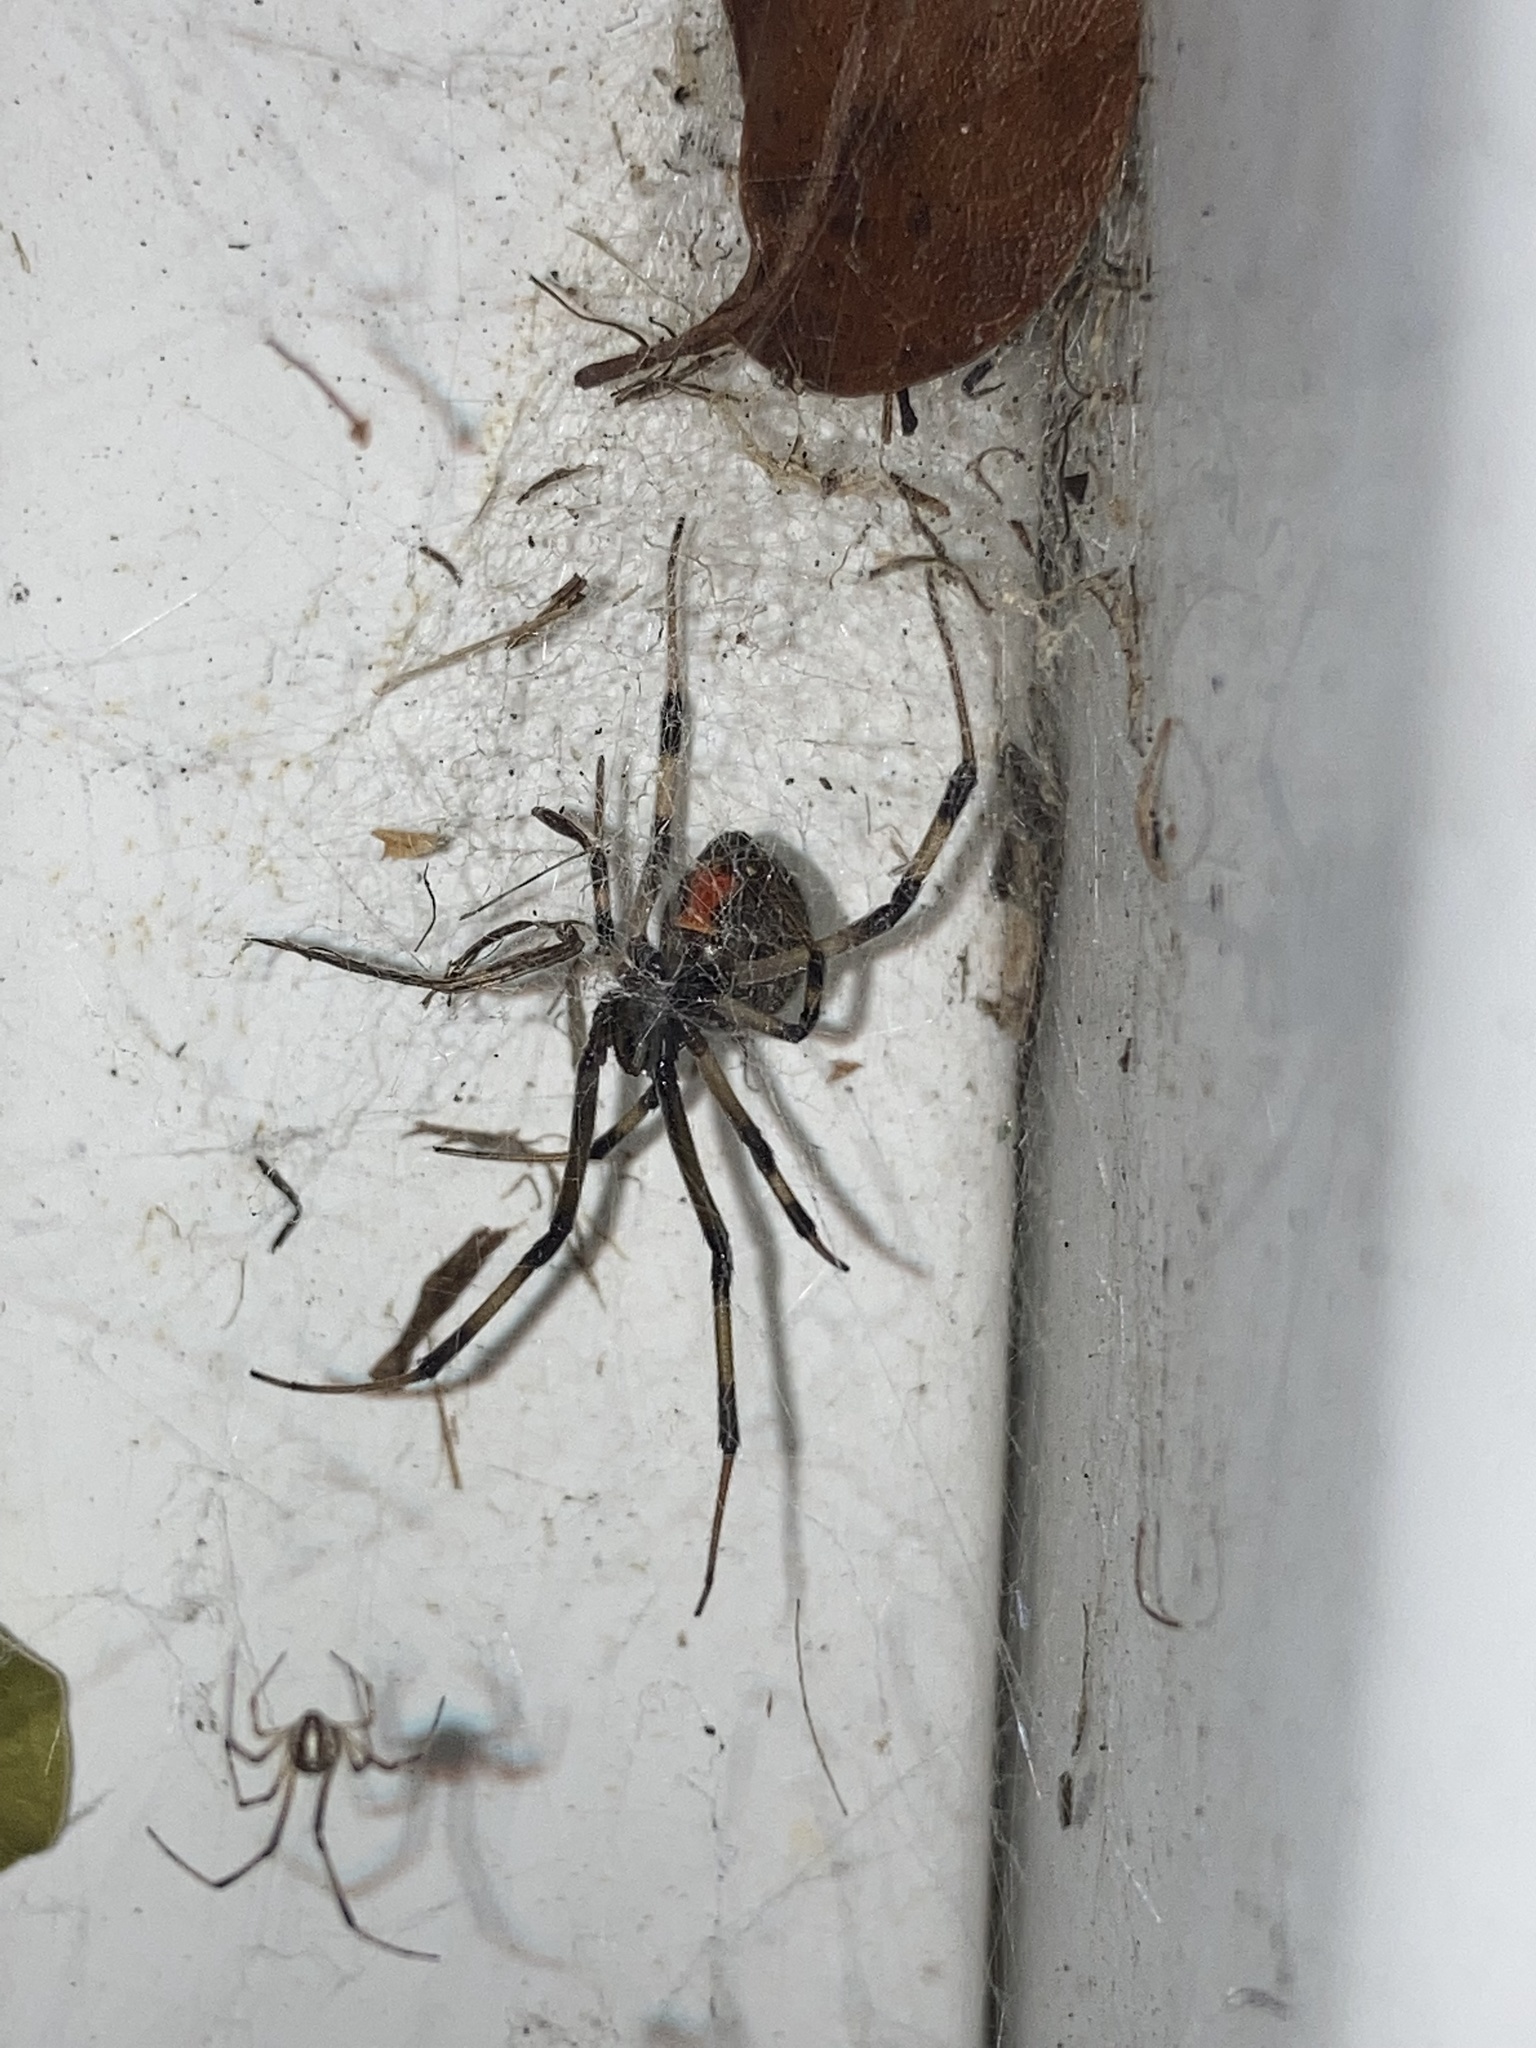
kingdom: Animalia
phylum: Arthropoda
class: Arachnida
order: Araneae
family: Theridiidae
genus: Latrodectus
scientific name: Latrodectus geometricus
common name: Brown widow spider
